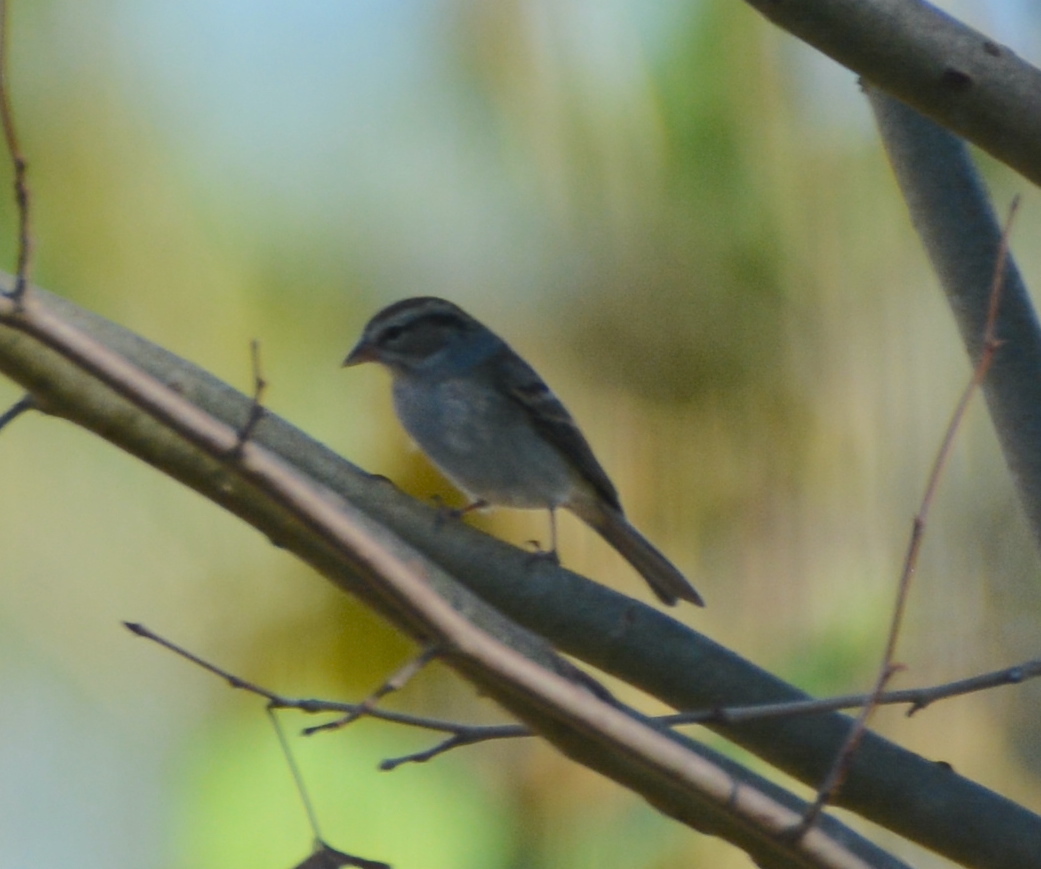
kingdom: Animalia
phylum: Chordata
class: Aves
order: Passeriformes
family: Passerellidae
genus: Spizella
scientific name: Spizella passerina
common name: Chipping sparrow
